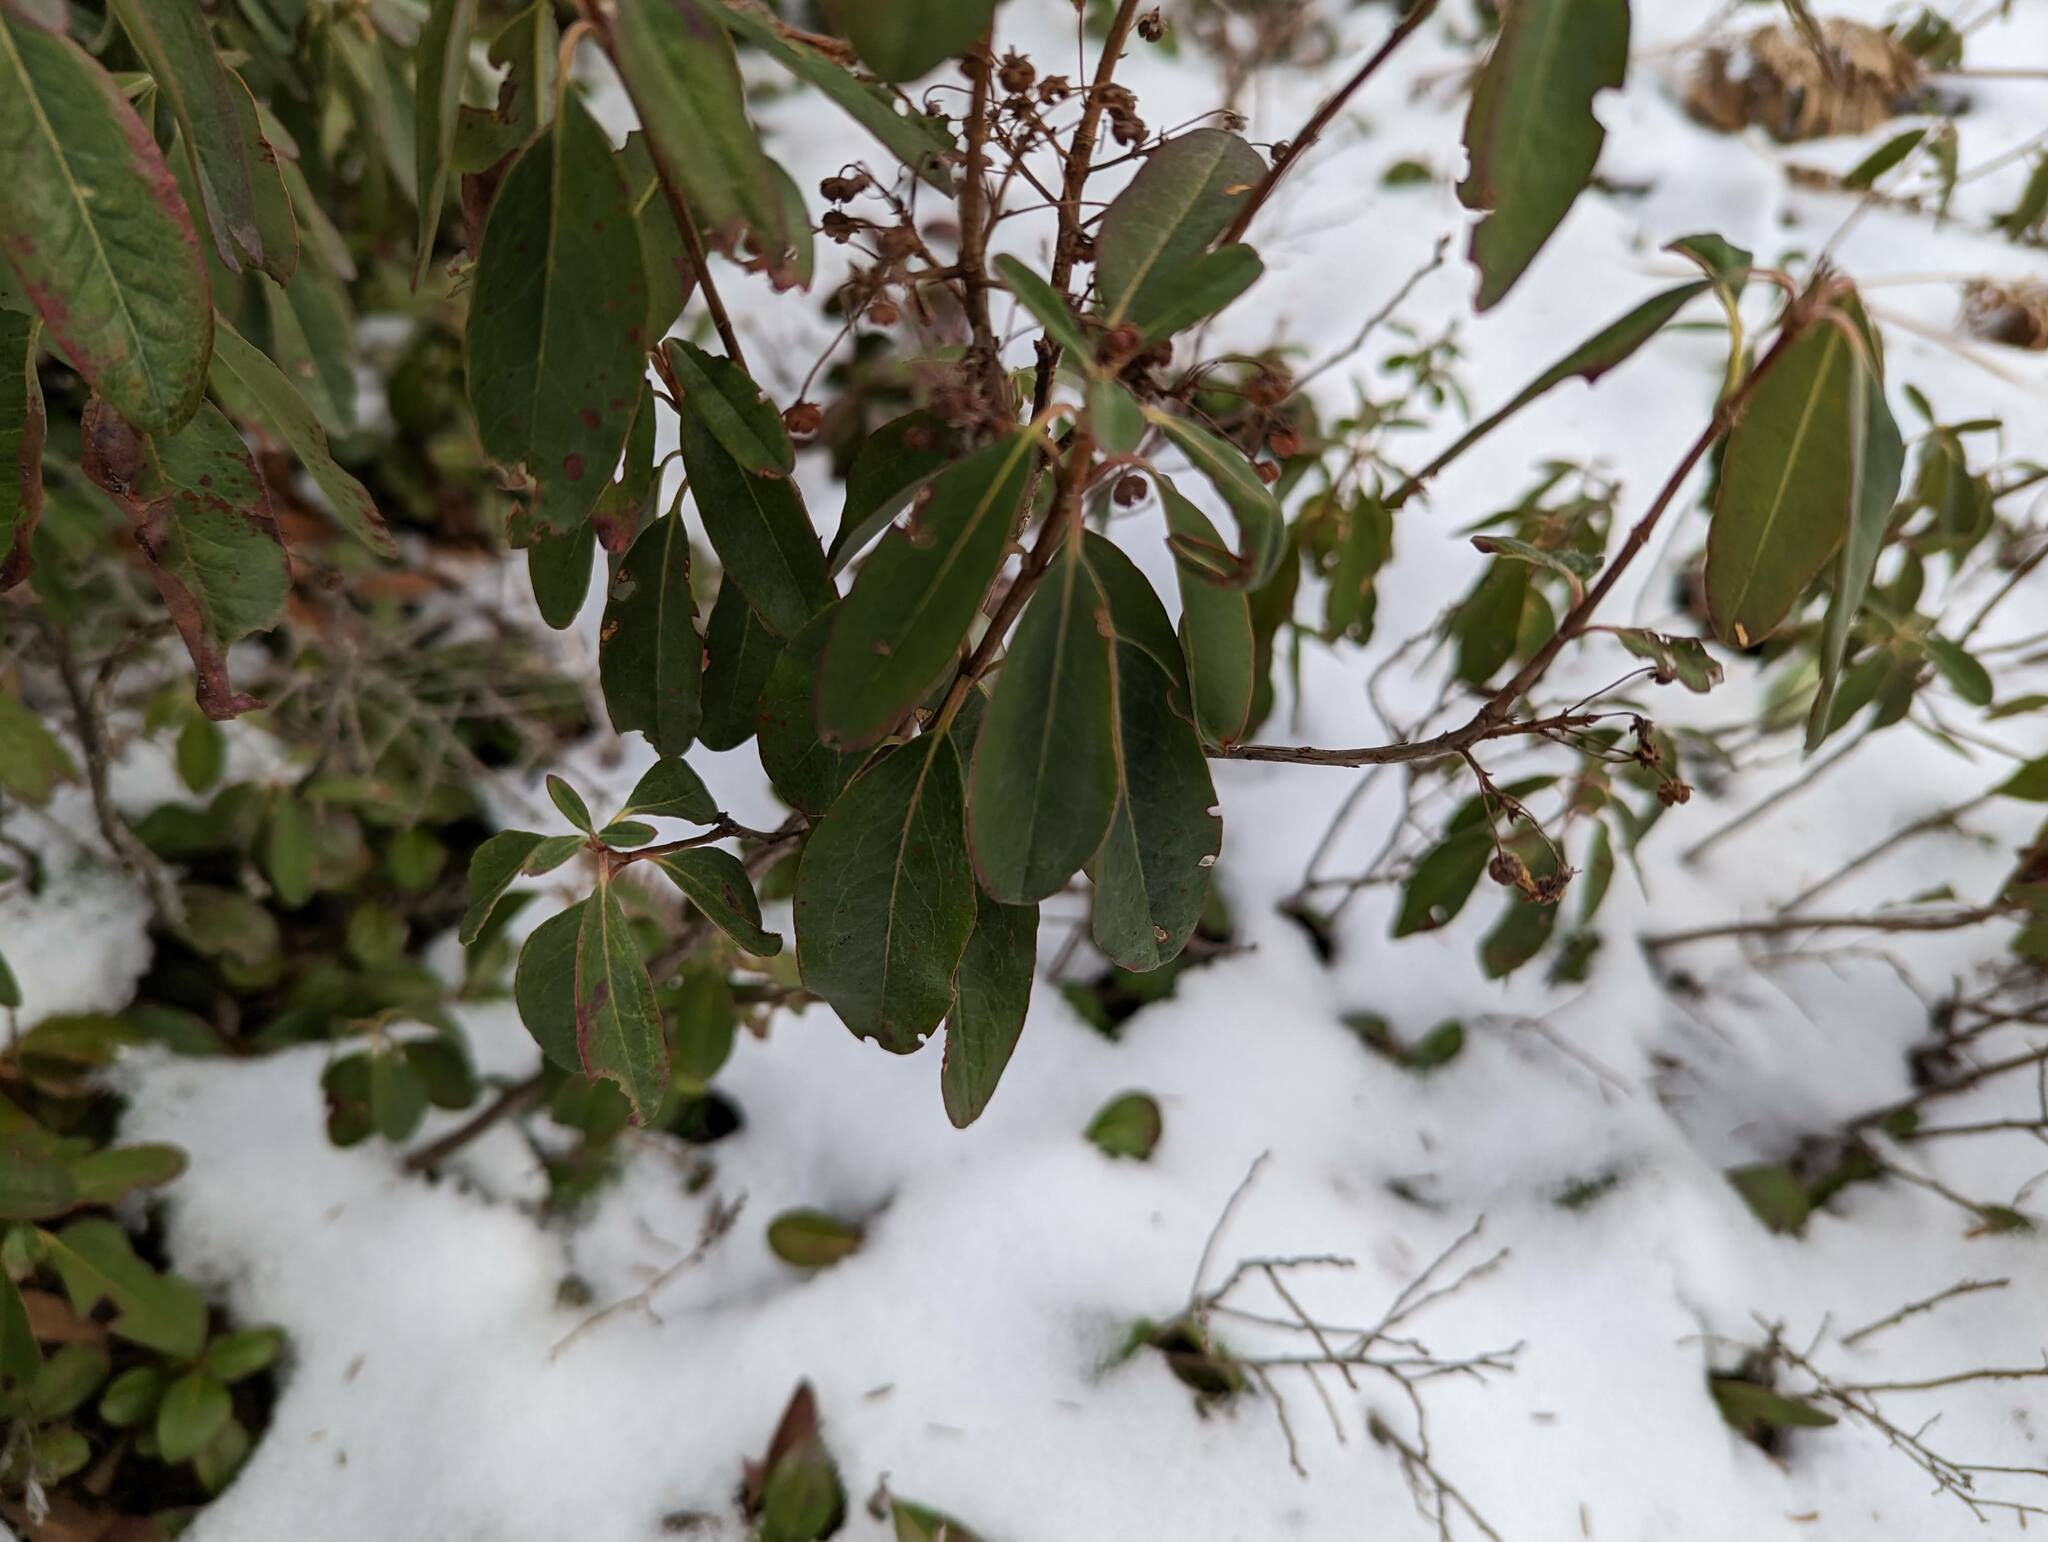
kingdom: Plantae
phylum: Tracheophyta
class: Magnoliopsida
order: Ericales
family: Ericaceae
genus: Kalmia
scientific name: Kalmia angustifolia
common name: Sheep-laurel
